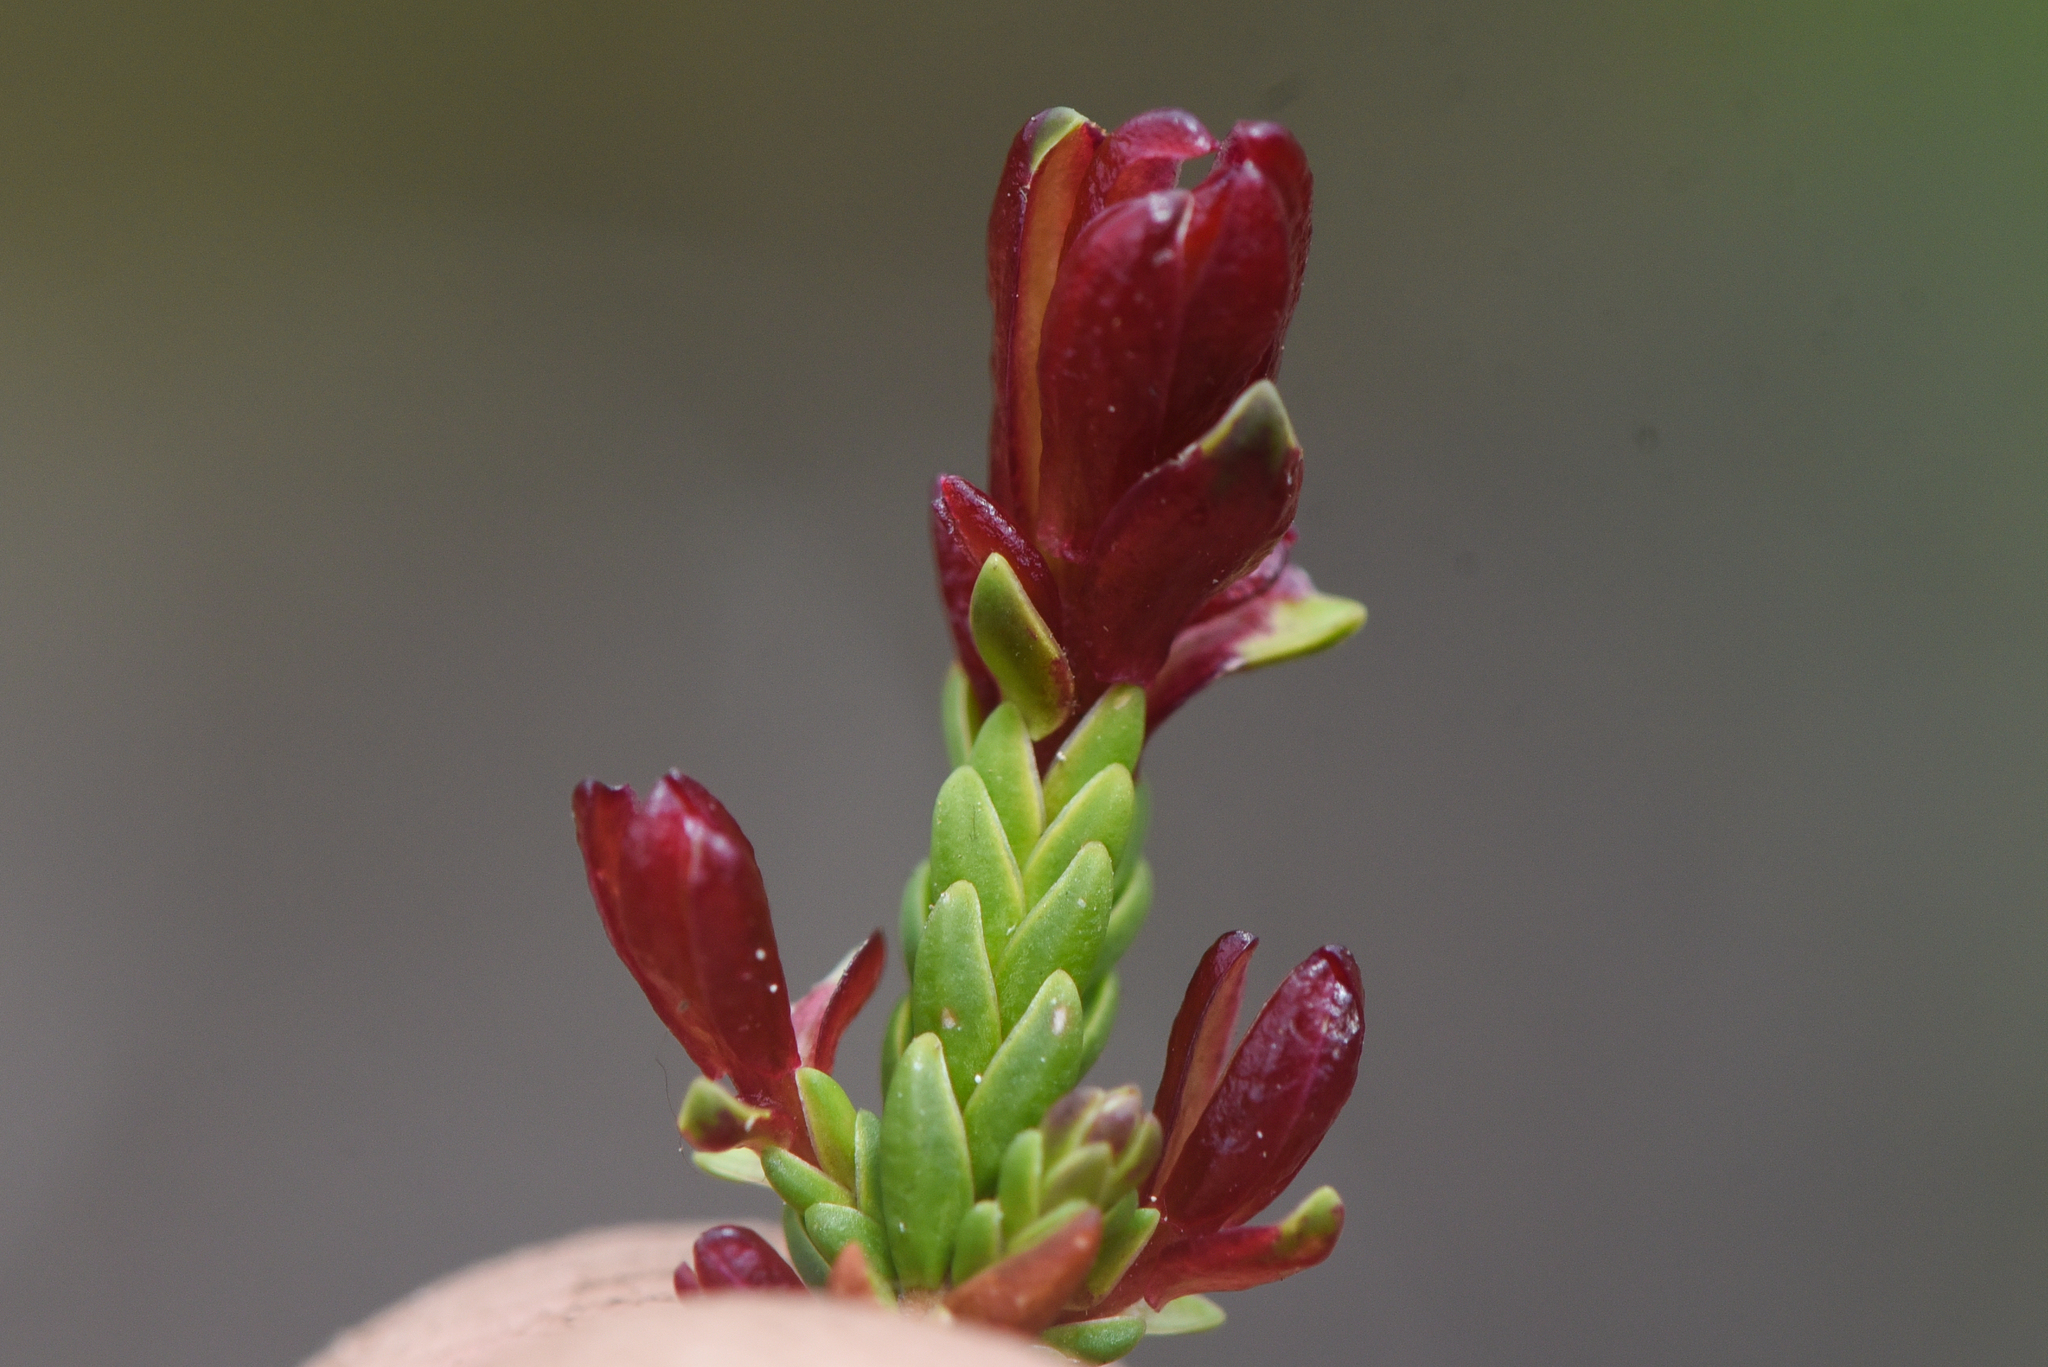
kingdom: Fungi
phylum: Basidiomycota
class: Exobasidiomycetes
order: Exobasidiales
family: Exobasidiaceae
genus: Exobasidium
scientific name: Exobasidium cassiopes
